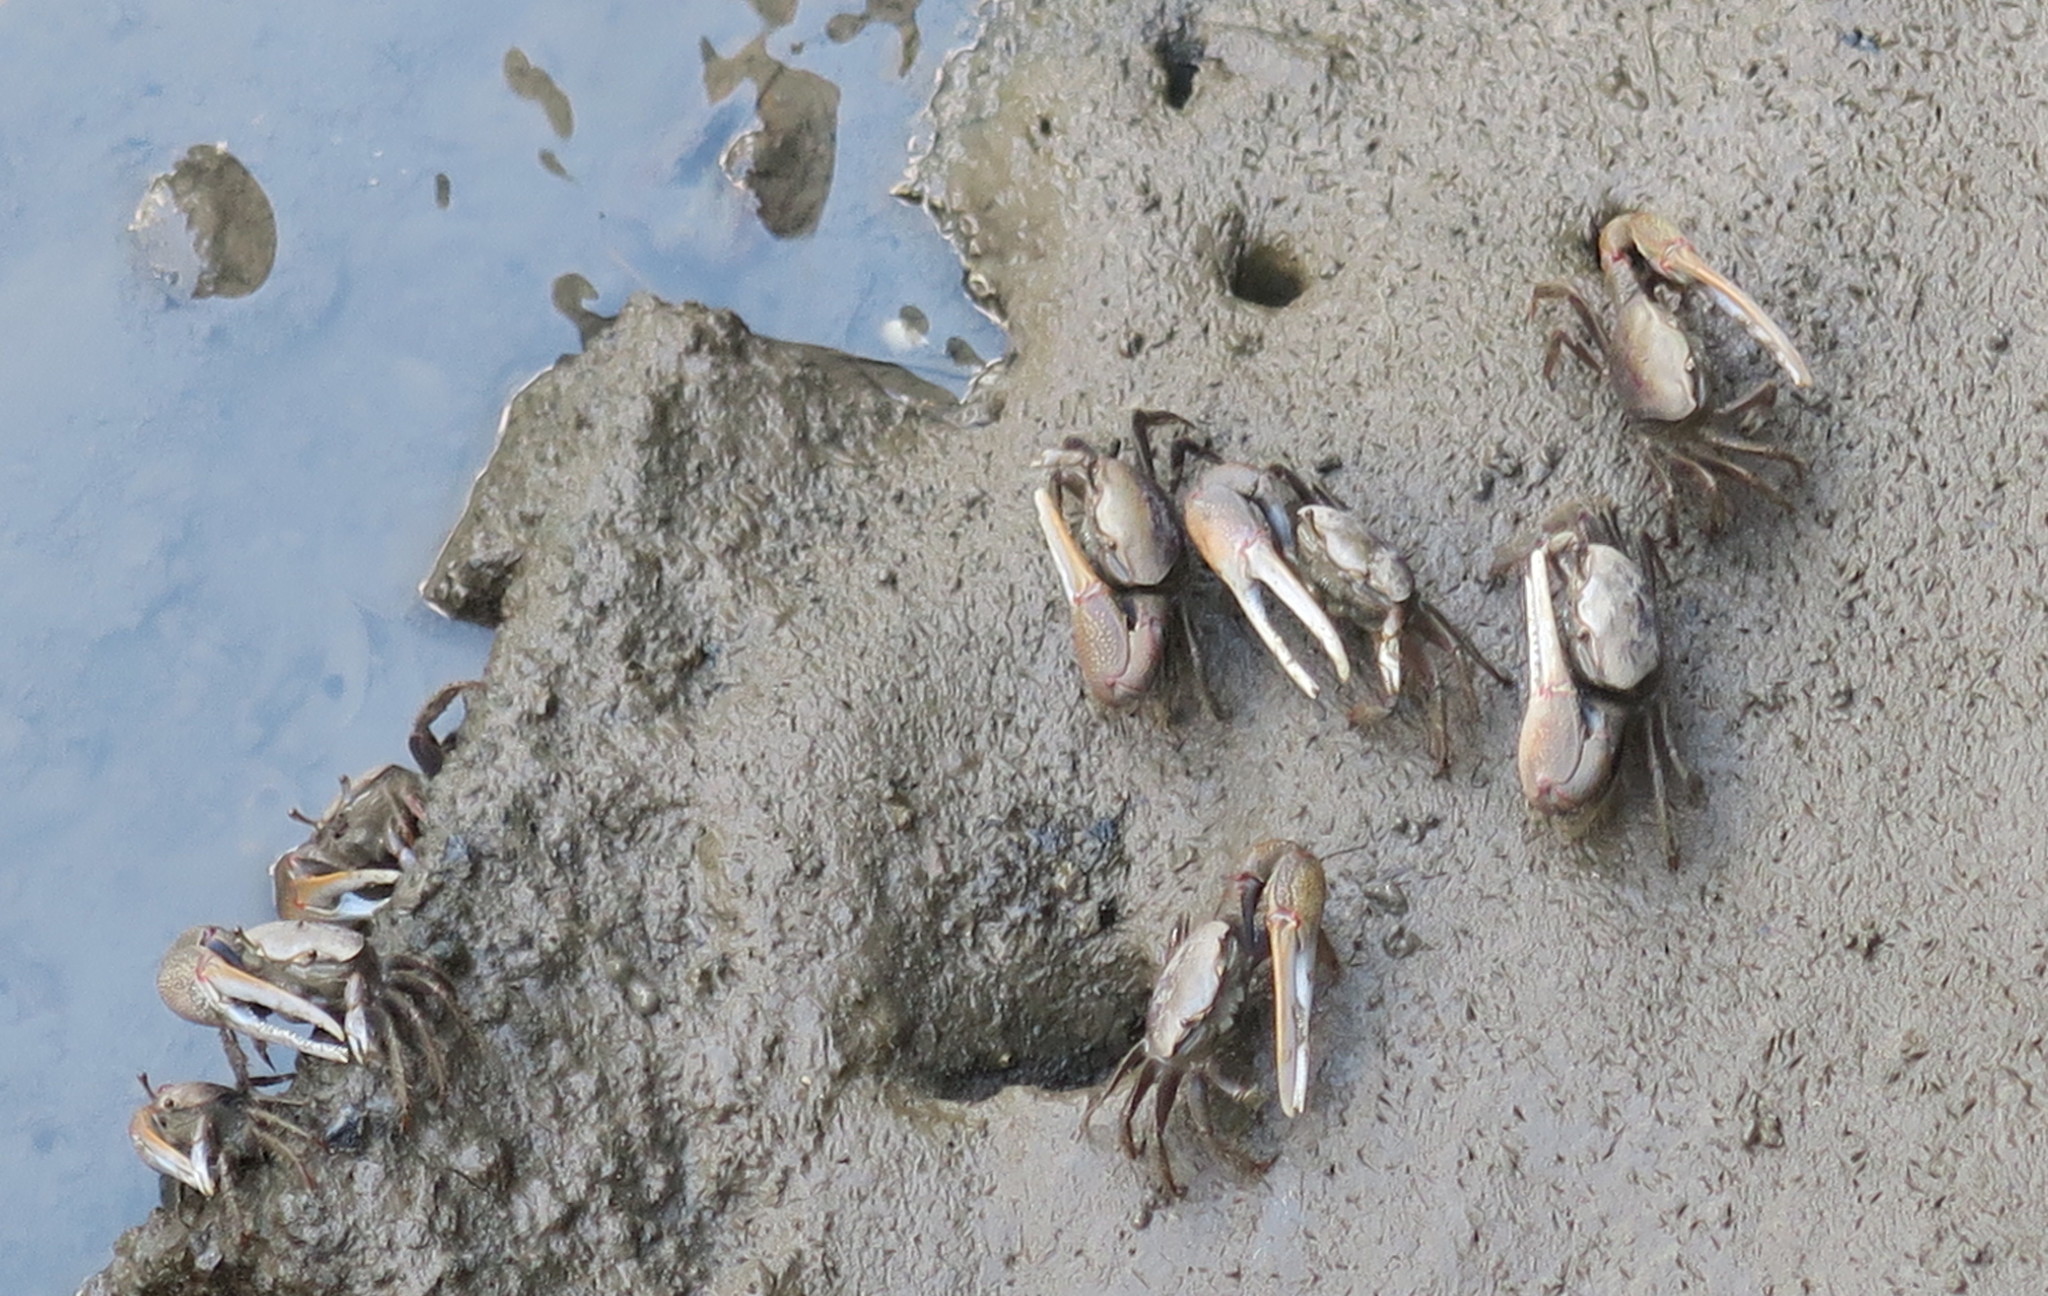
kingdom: Animalia
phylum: Arthropoda
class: Malacostraca
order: Decapoda
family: Ocypodidae
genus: Minuca
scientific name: Minuca minax
